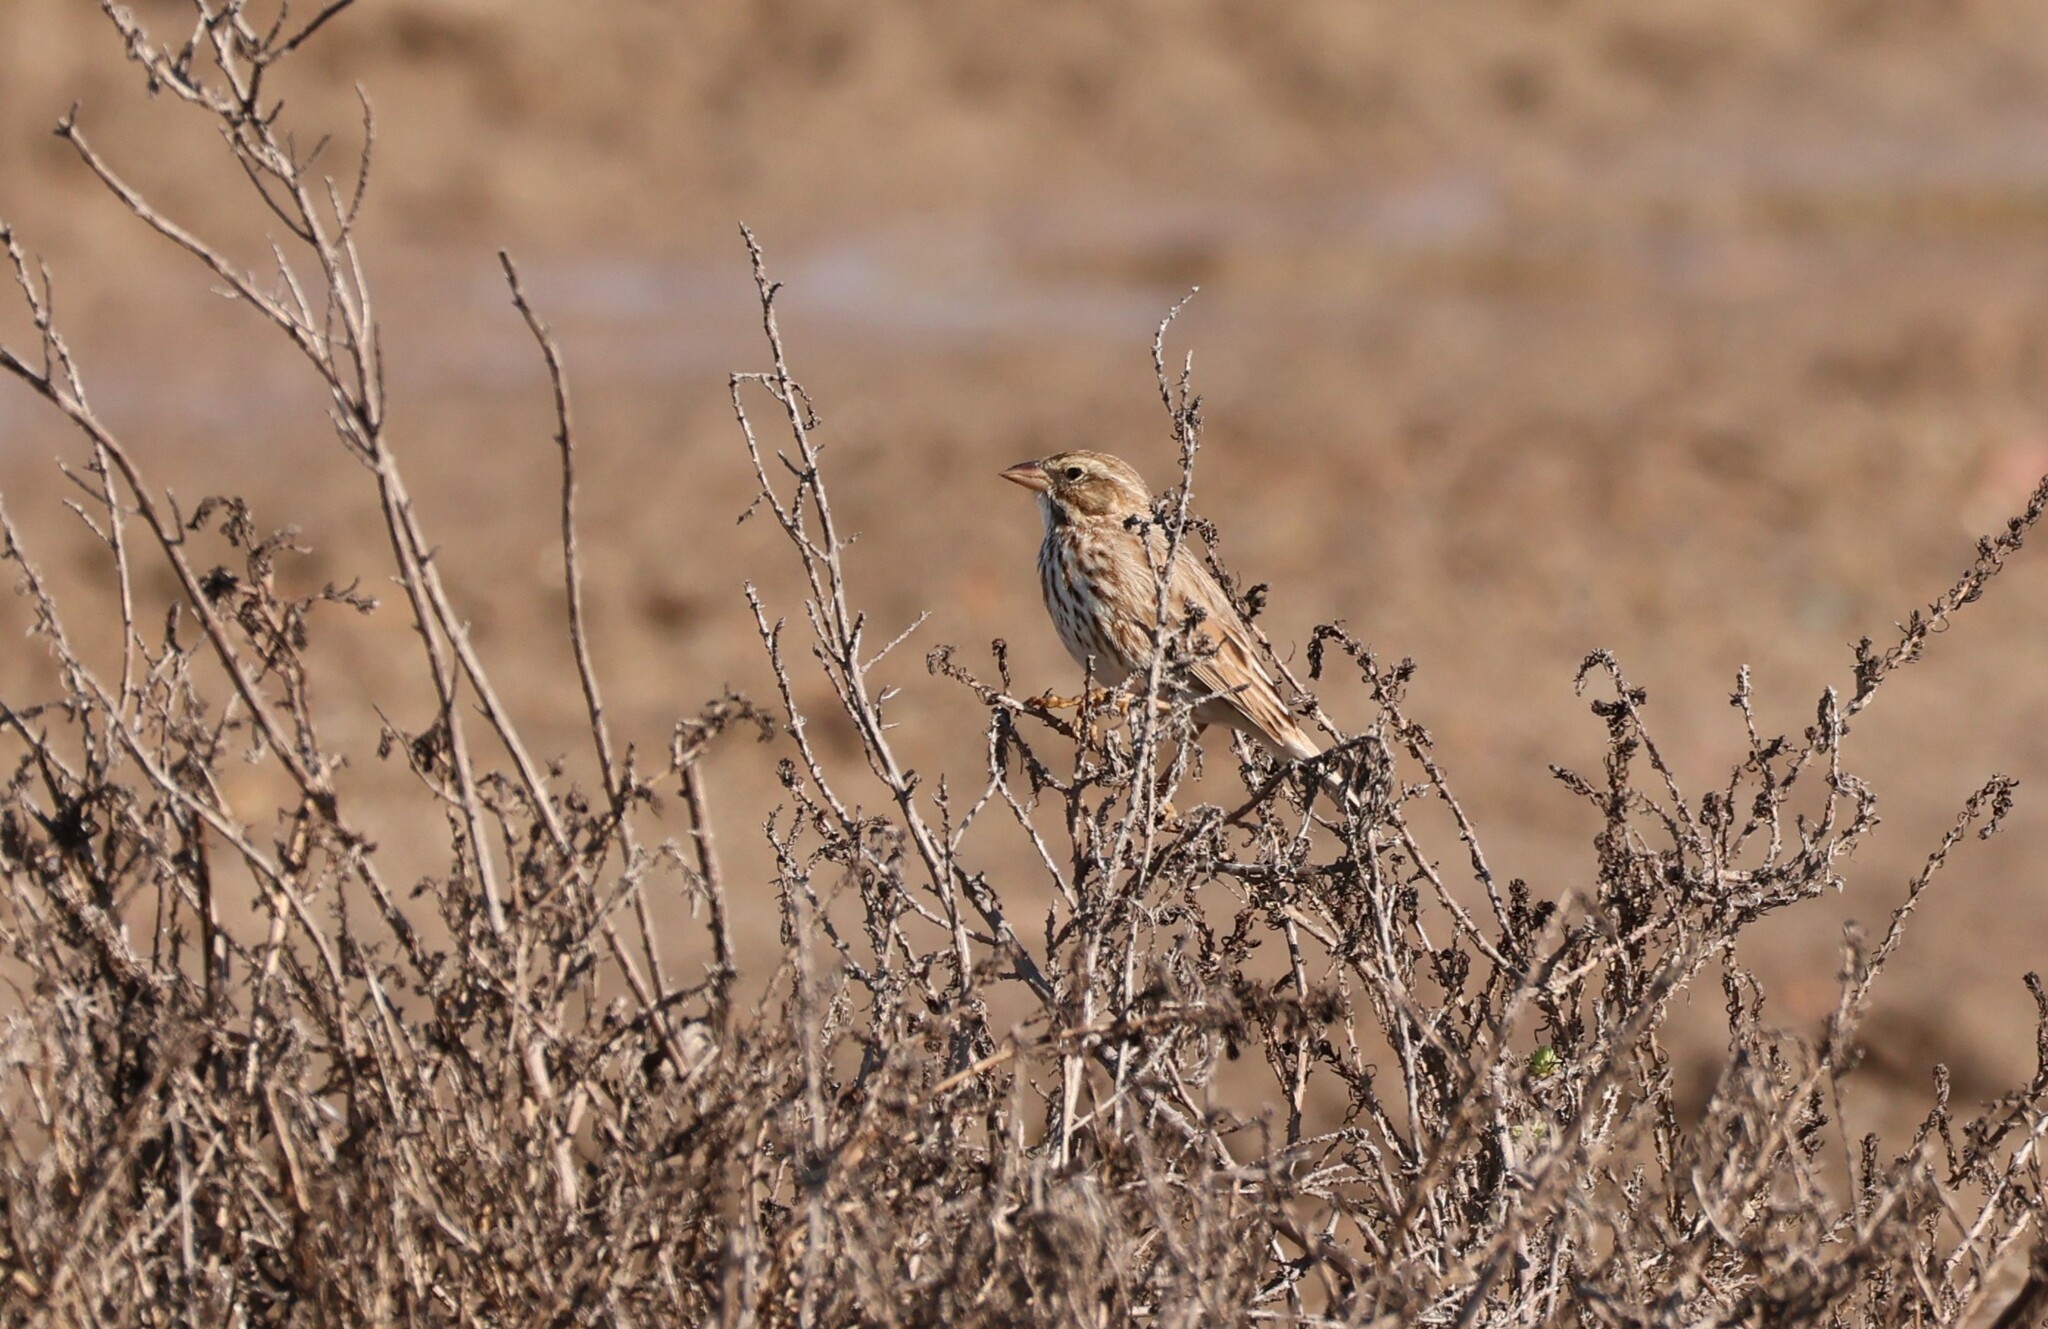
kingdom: Animalia
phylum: Chordata
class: Aves
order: Passeriformes
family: Passerellidae
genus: Passerculus
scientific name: Passerculus sandwichensis
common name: Savannah sparrow
